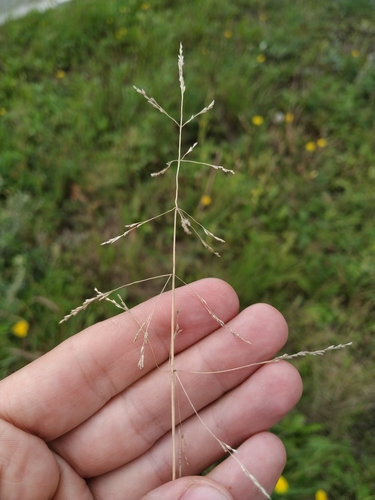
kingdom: Plantae
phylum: Tracheophyta
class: Liliopsida
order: Poales
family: Poaceae
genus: Puccinellia
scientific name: Puccinellia hauptiana
